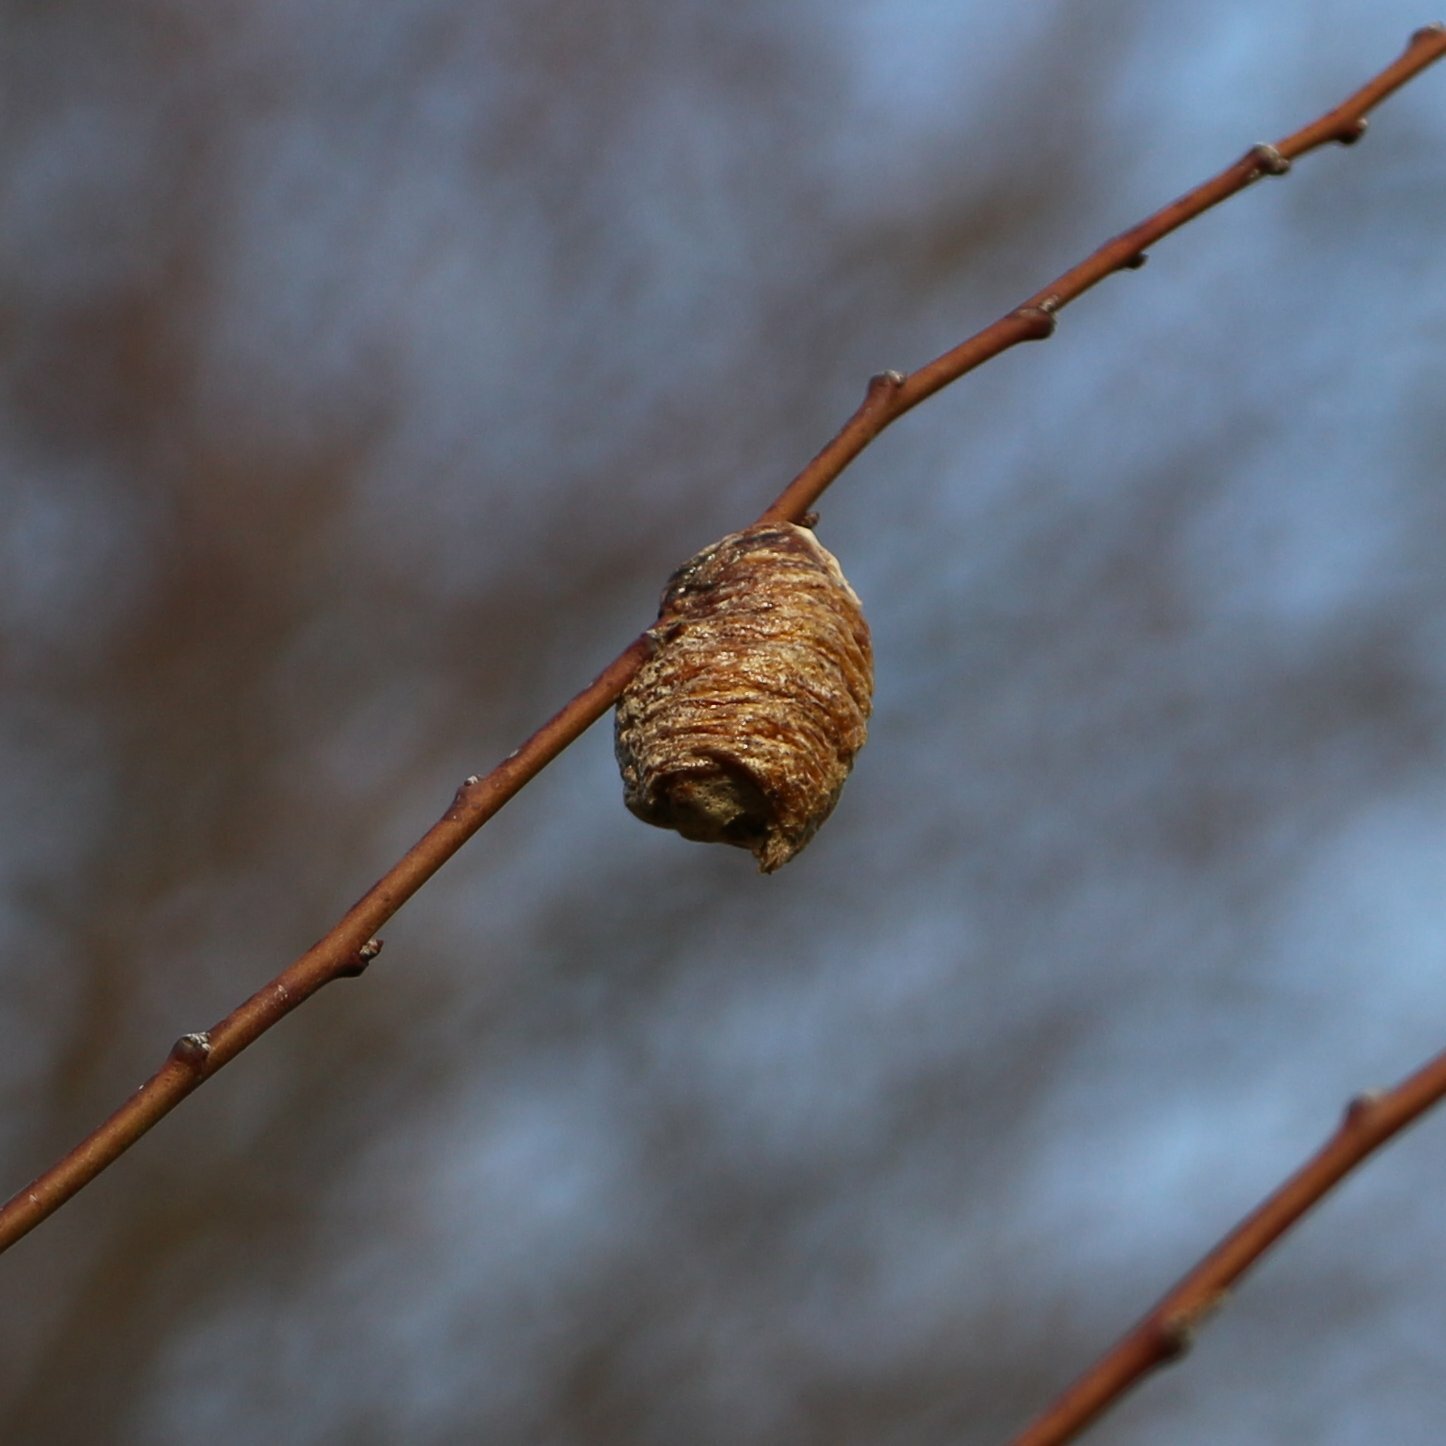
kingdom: Animalia
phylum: Arthropoda
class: Insecta
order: Mantodea
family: Mantidae
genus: Hierodula
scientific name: Hierodula transcaucasica
